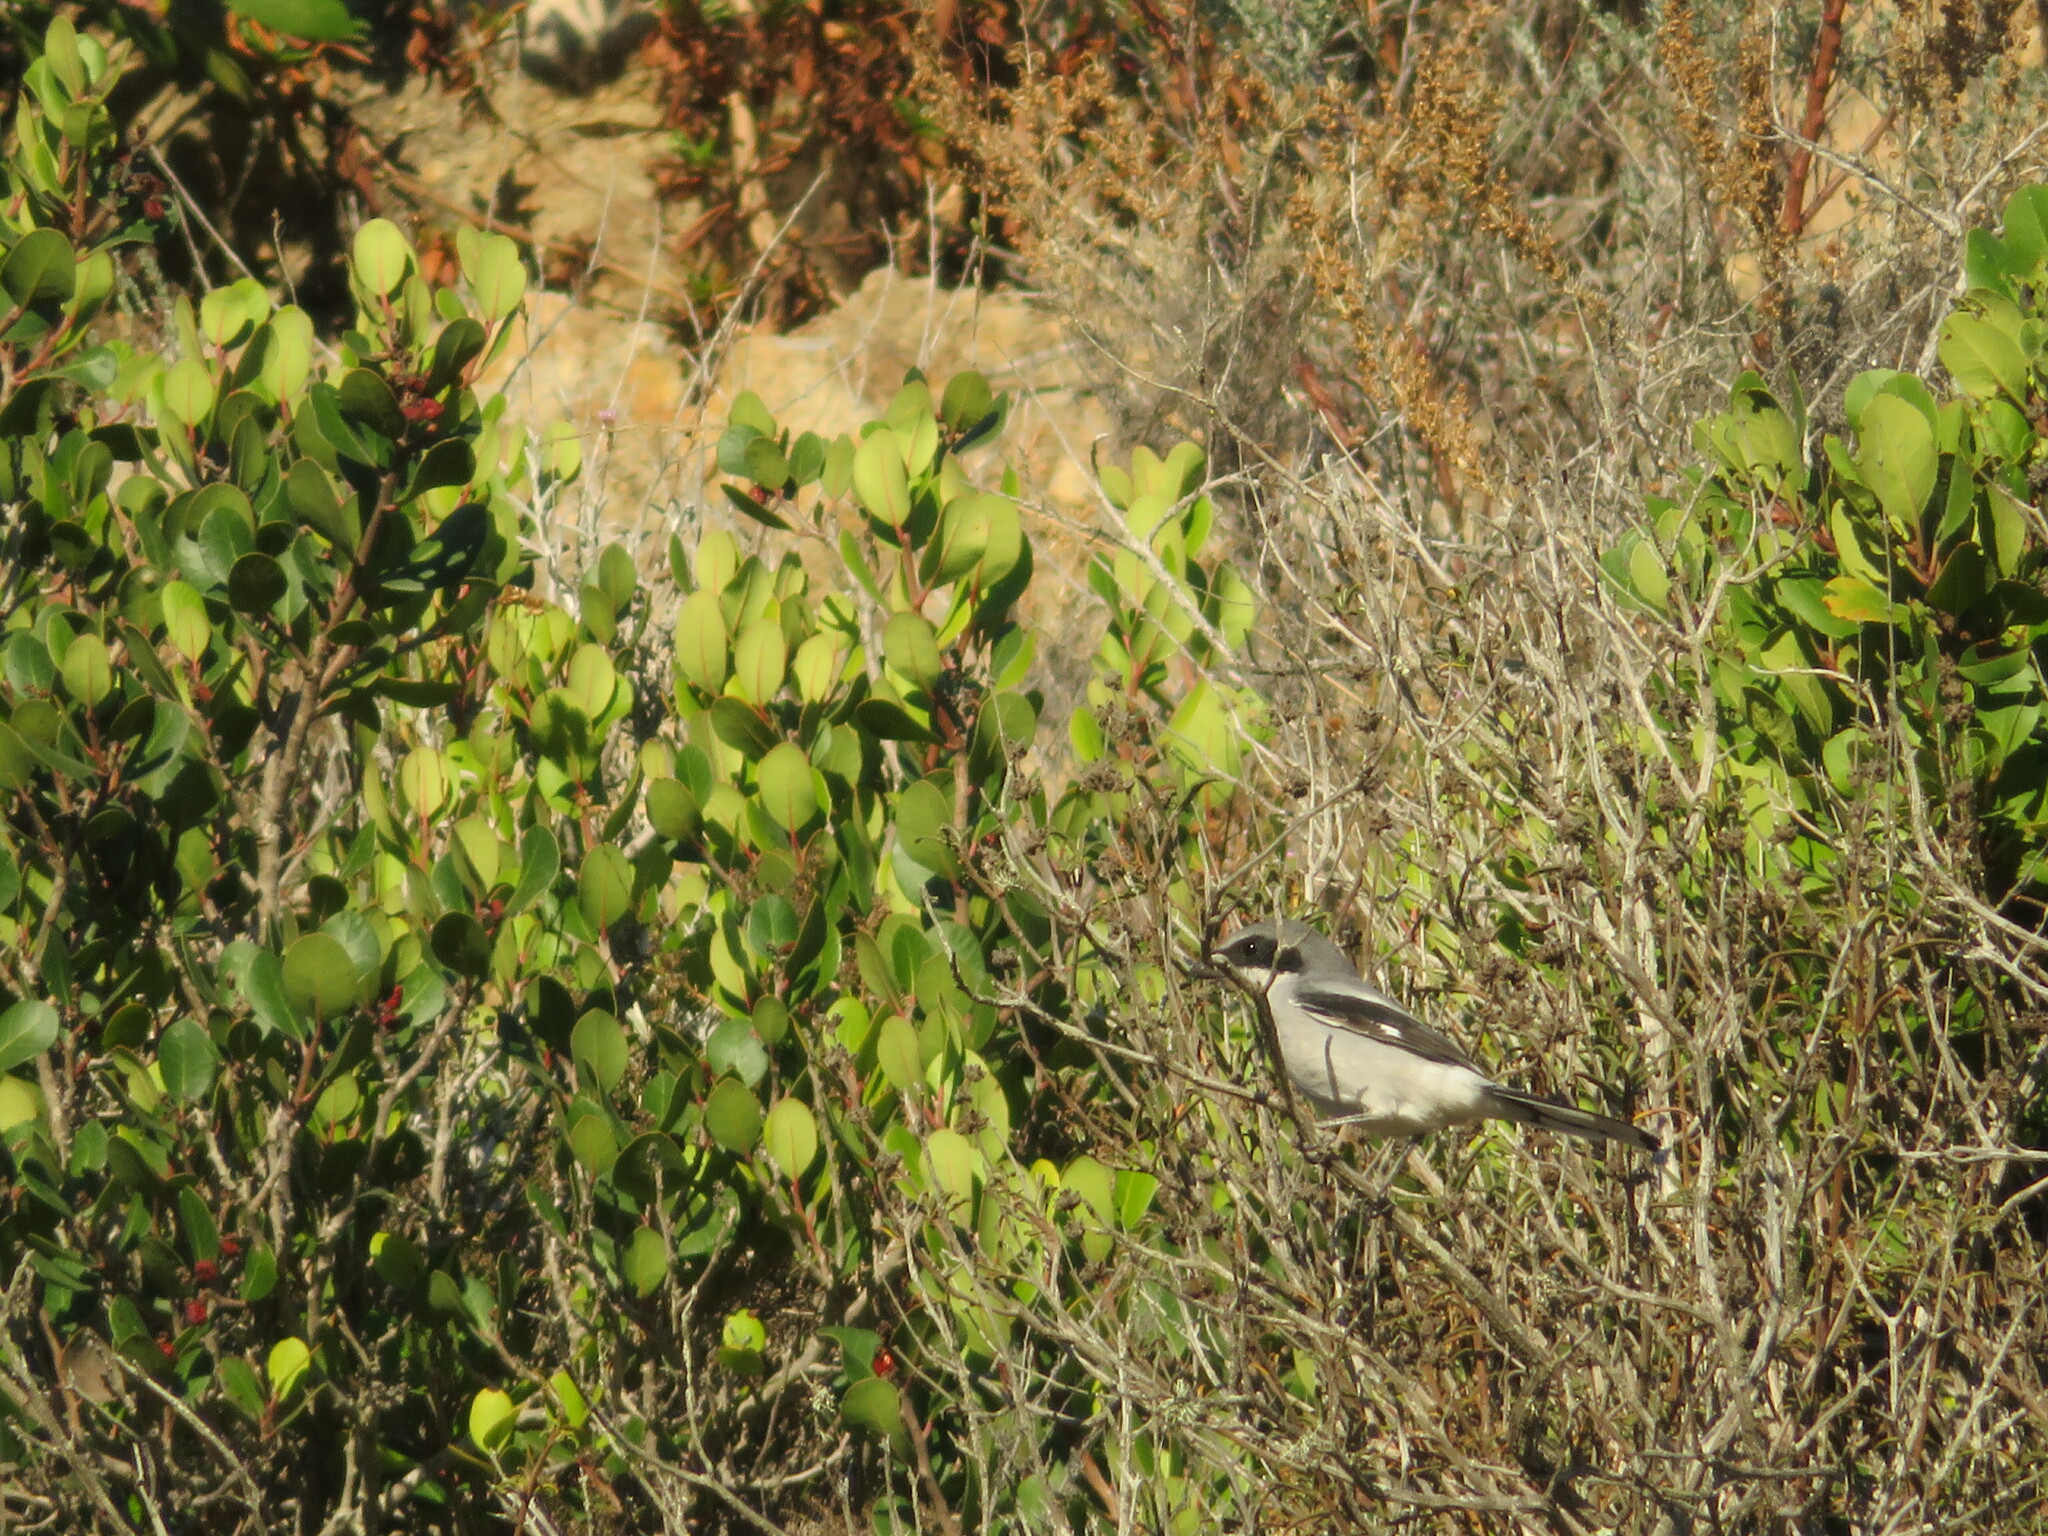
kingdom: Animalia
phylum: Chordata
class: Aves
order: Passeriformes
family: Laniidae
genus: Lanius
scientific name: Lanius ludovicianus
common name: Loggerhead shrike
